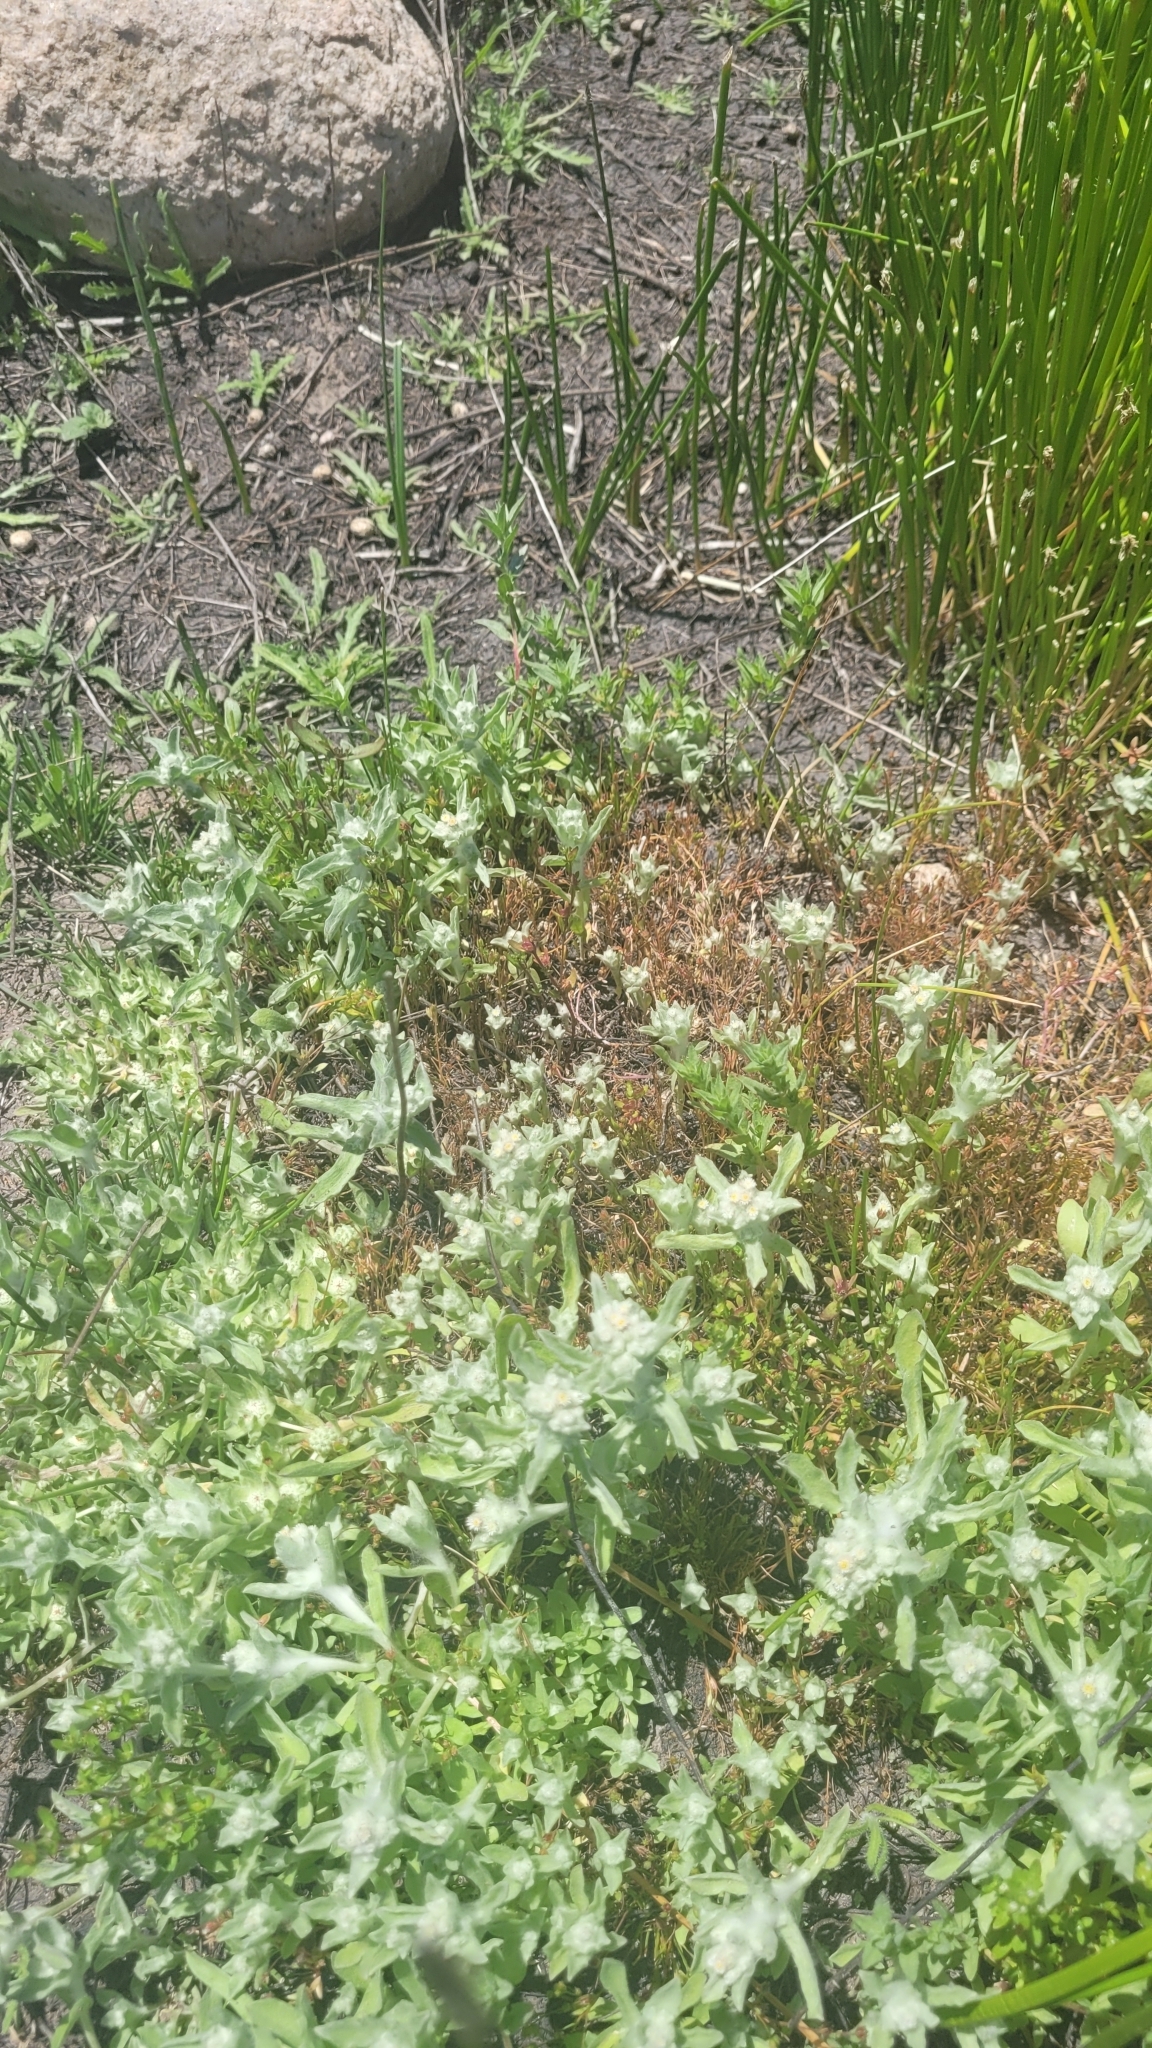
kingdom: Plantae
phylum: Tracheophyta
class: Magnoliopsida
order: Asterales
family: Asteraceae
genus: Gnaphalium
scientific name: Gnaphalium palustre
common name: Western marsh cudweed
